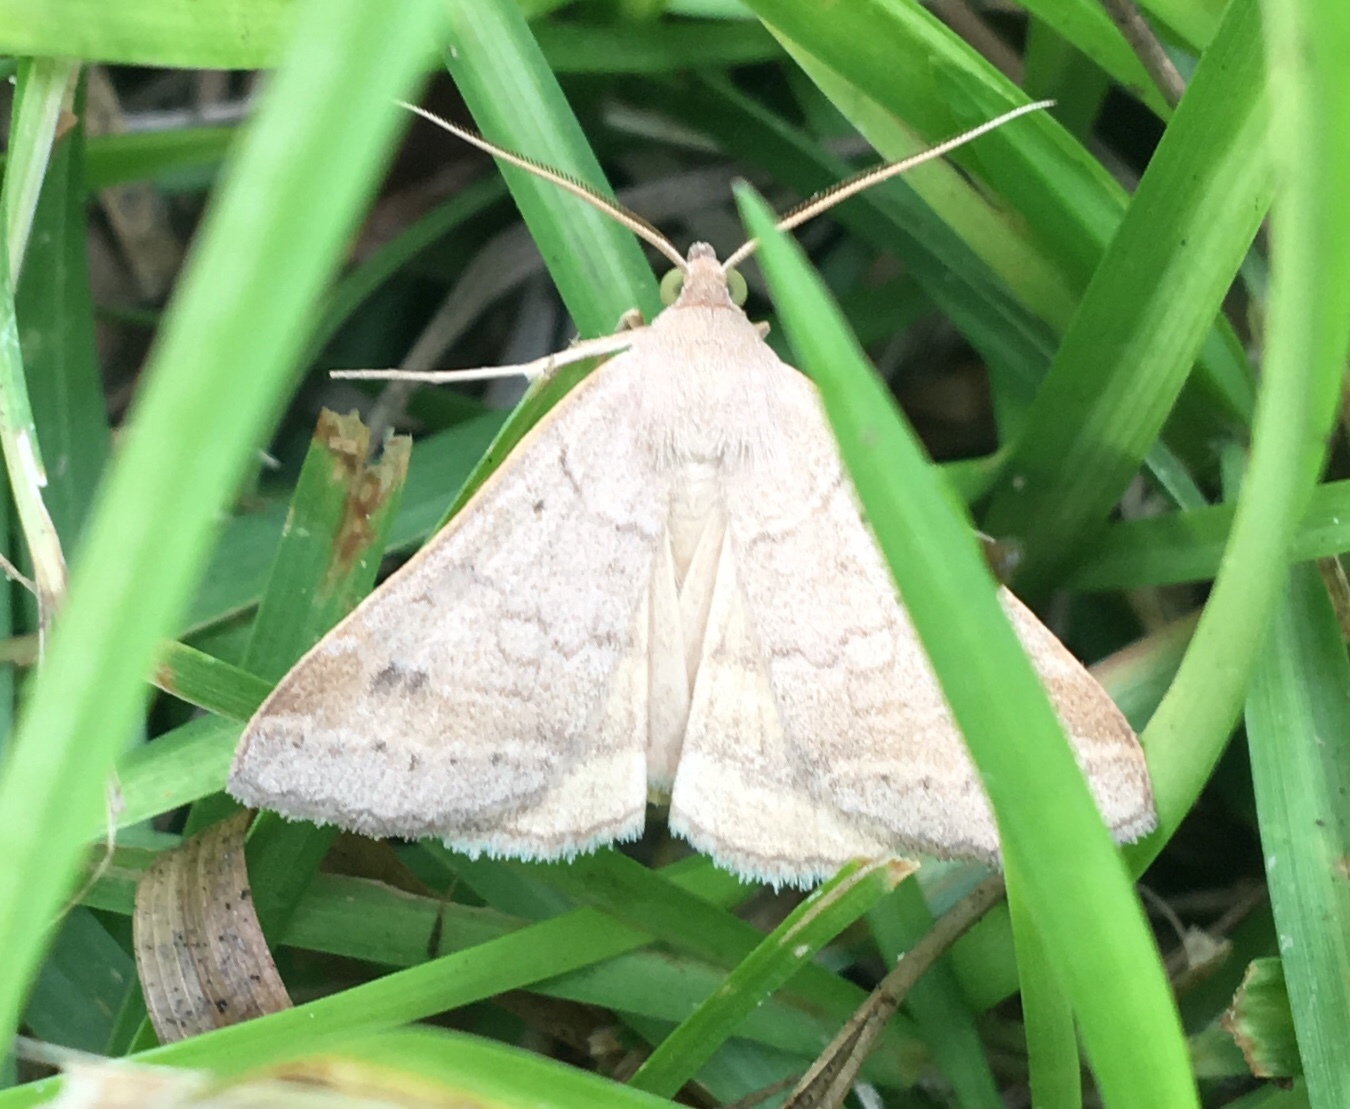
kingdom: Animalia
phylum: Arthropoda
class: Insecta
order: Lepidoptera
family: Erebidae
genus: Caenurgia
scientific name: Caenurgia chloropha
